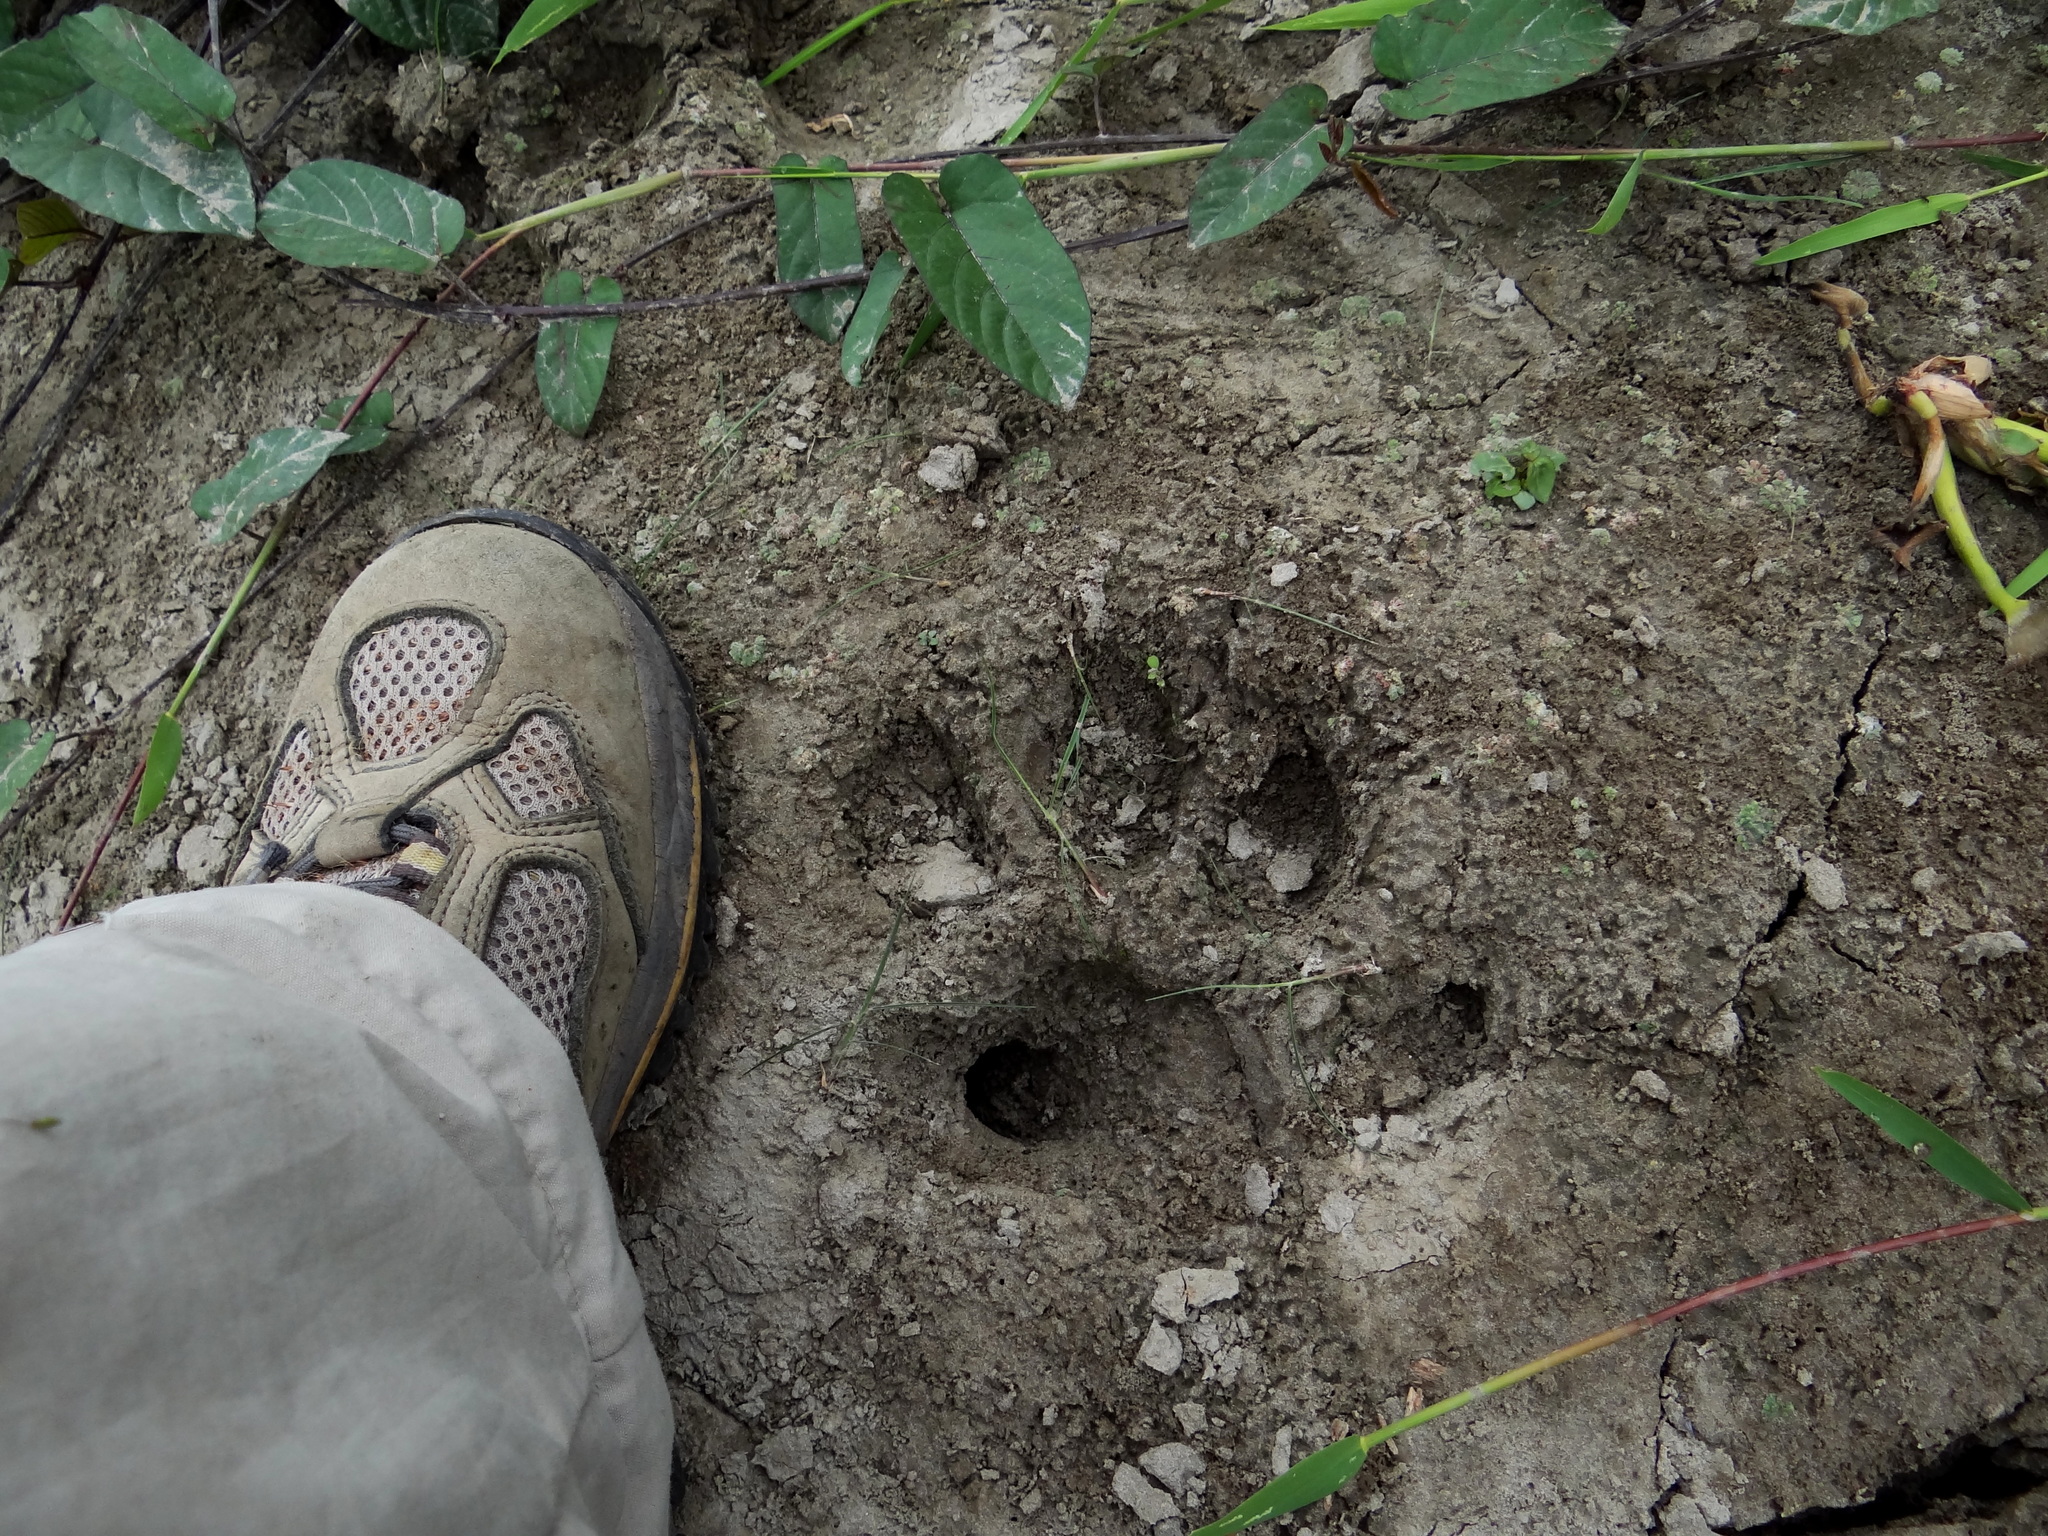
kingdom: Animalia
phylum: Chordata
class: Mammalia
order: Carnivora
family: Felidae
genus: Panthera
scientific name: Panthera tigris
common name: Tiger
